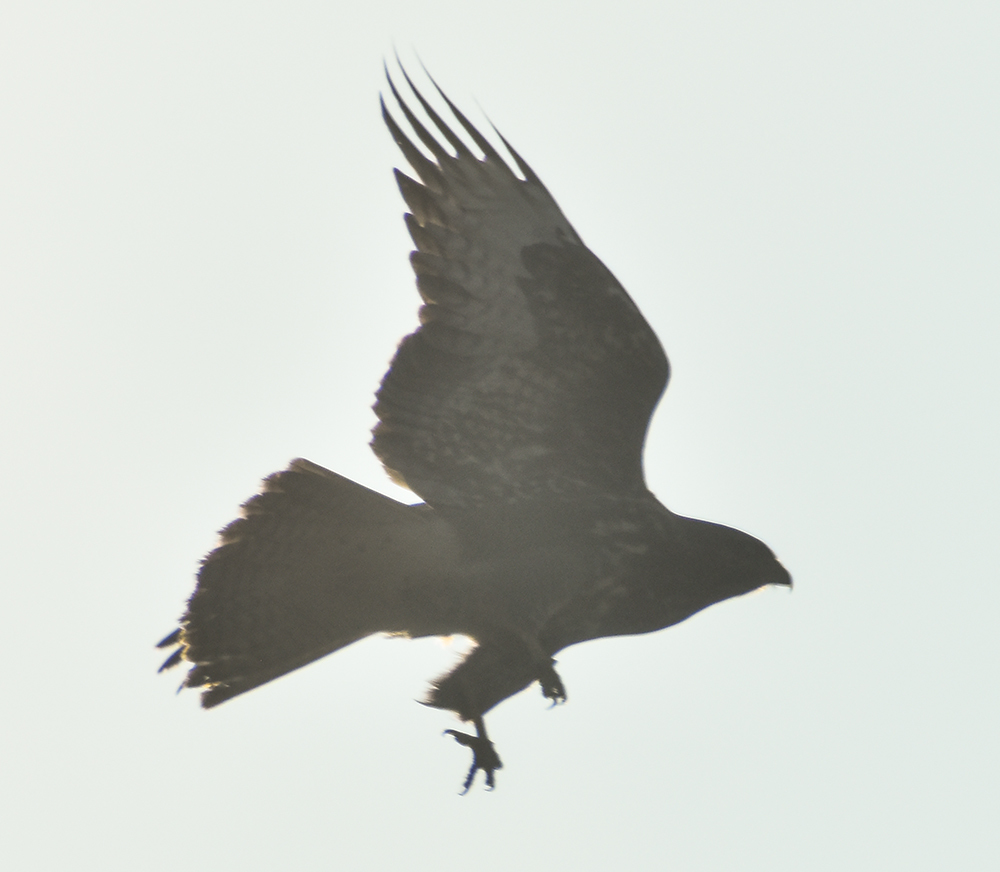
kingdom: Animalia
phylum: Chordata
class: Aves
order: Accipitriformes
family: Accipitridae
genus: Buteo
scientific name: Buteo buteo
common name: Common buzzard
